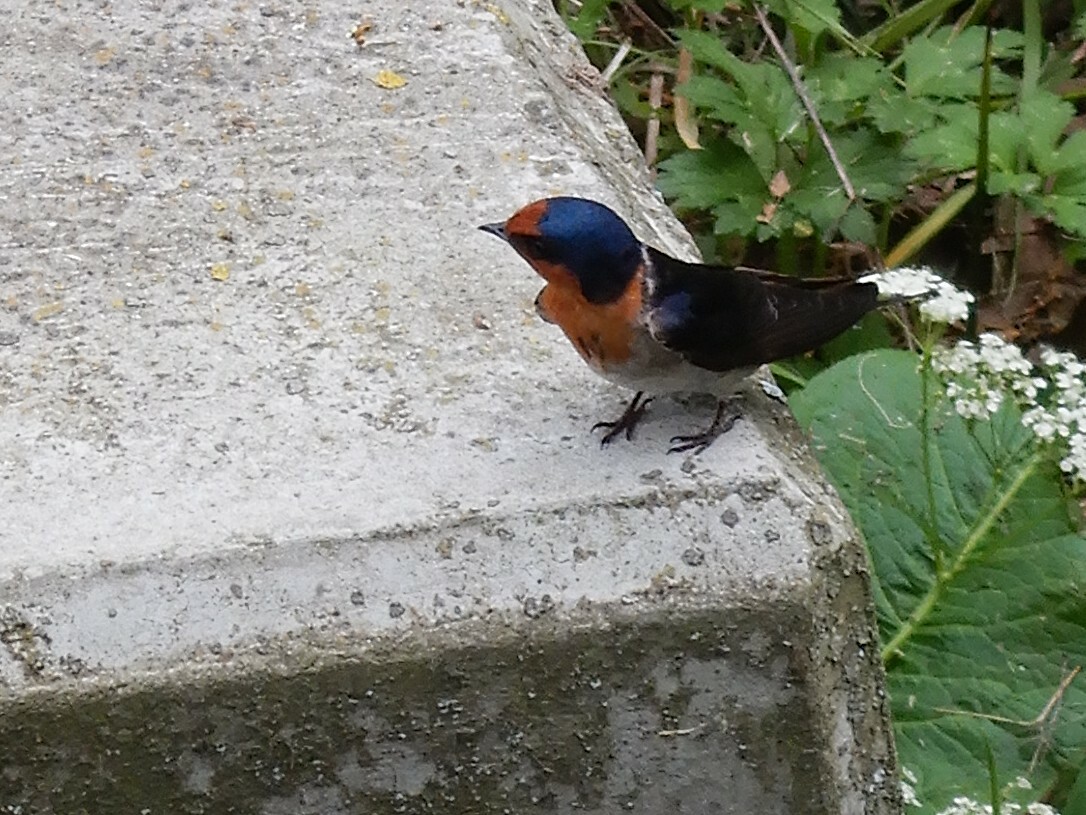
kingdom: Animalia
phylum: Chordata
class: Aves
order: Passeriformes
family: Hirundinidae
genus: Hirundo
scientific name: Hirundo neoxena
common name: Welcome swallow
